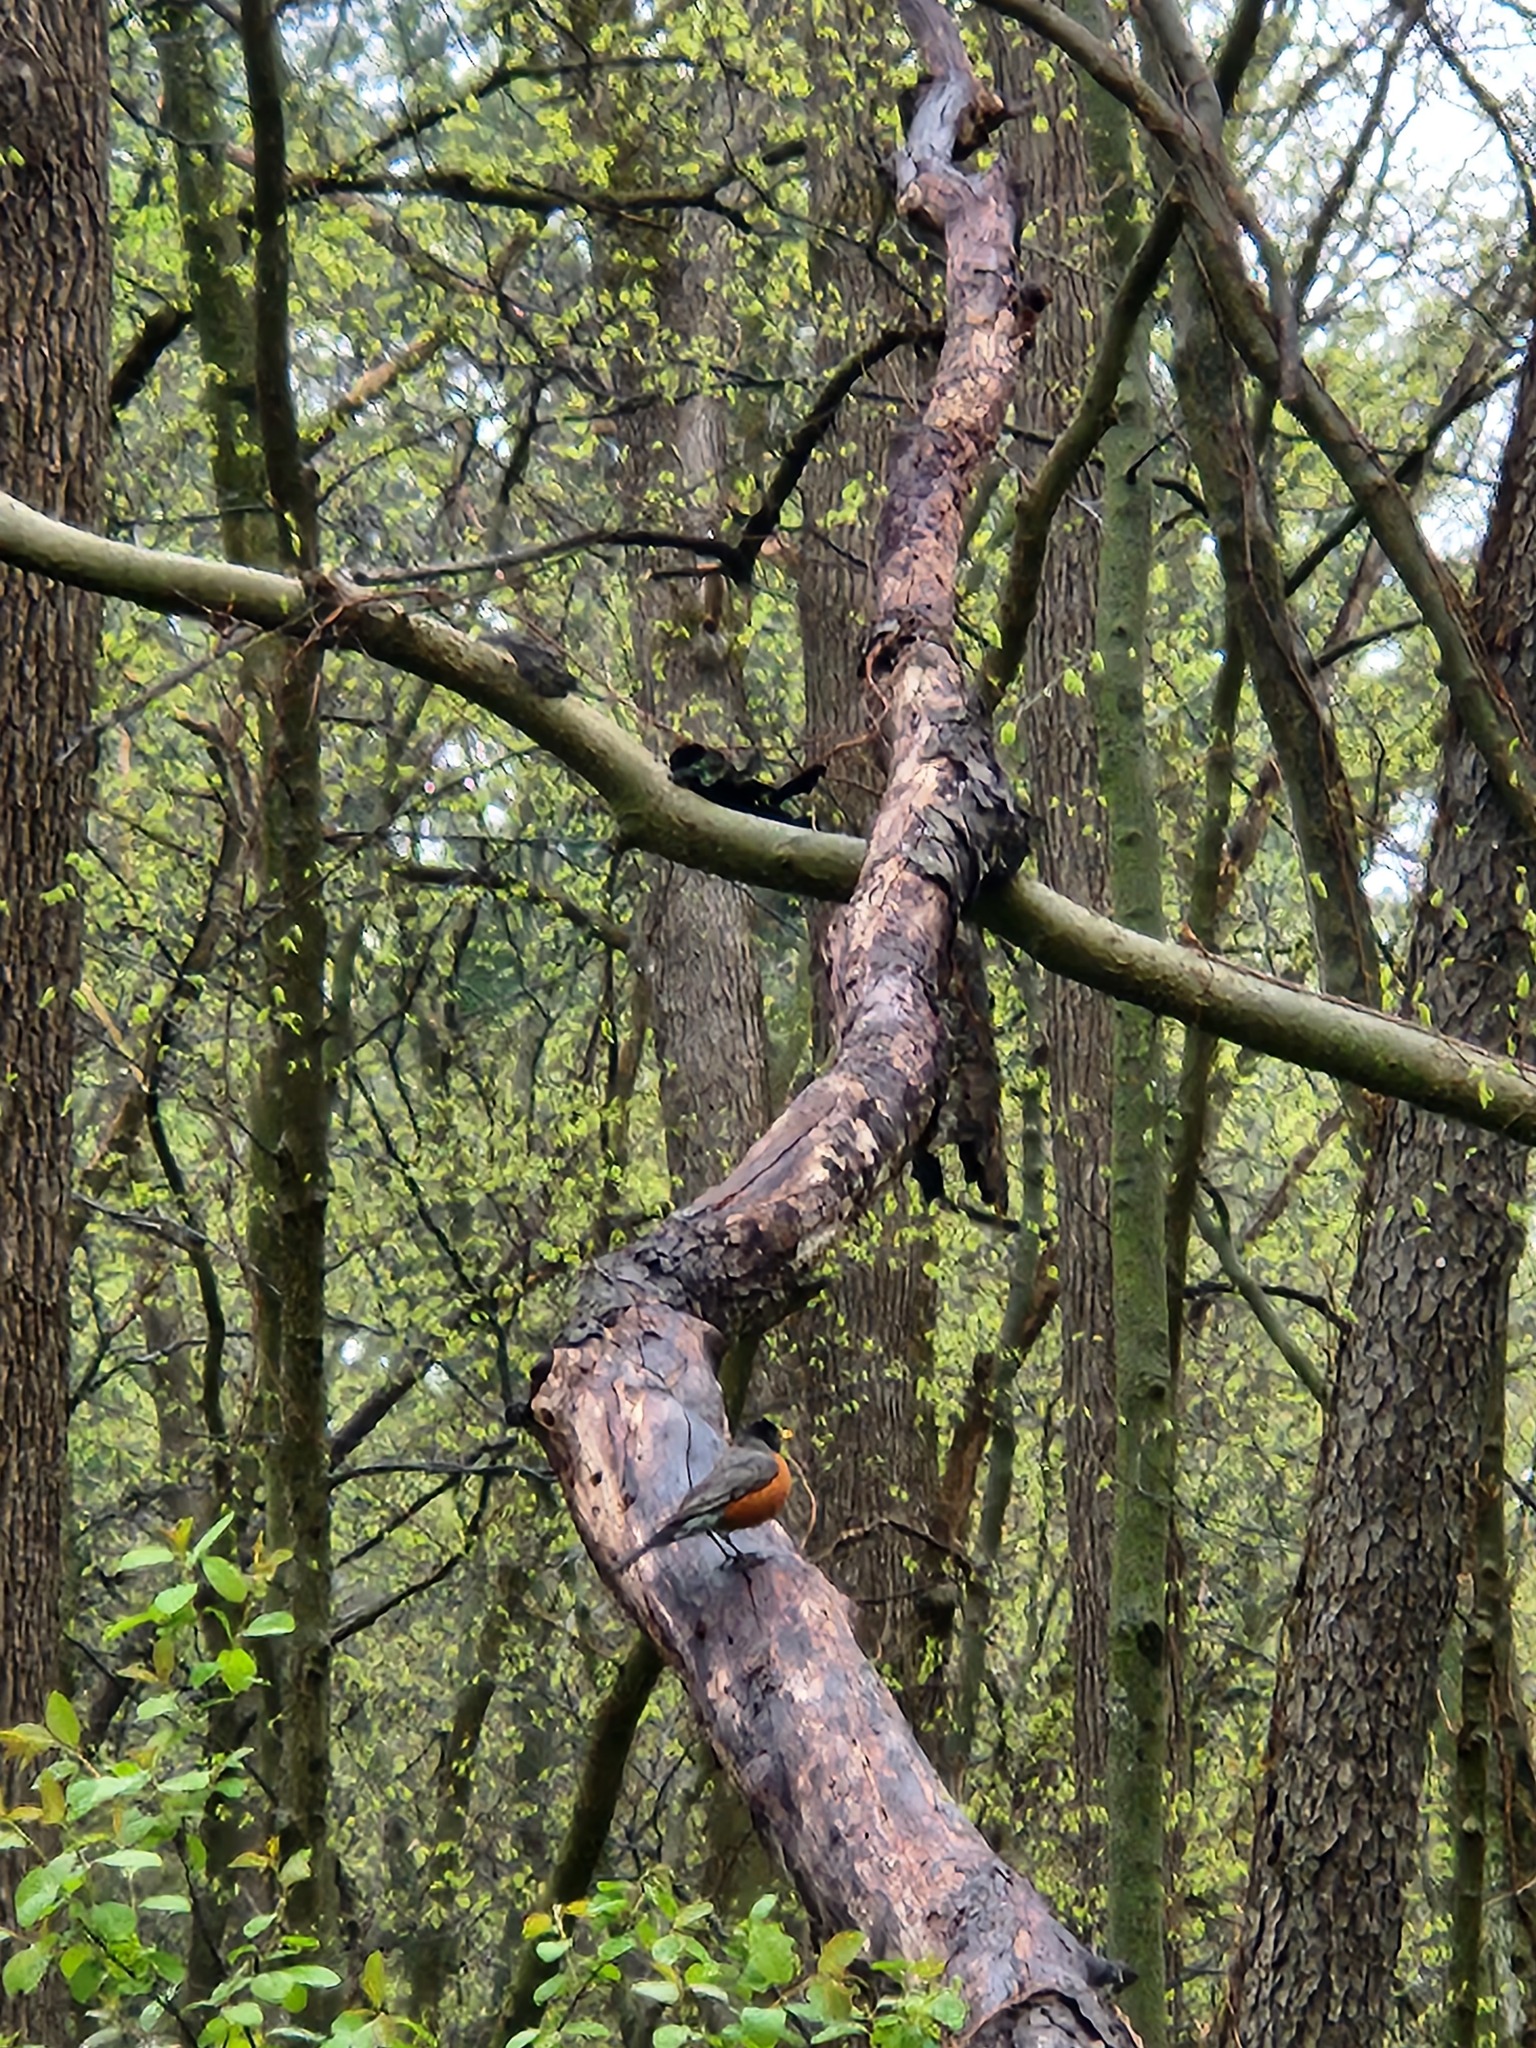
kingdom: Animalia
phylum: Chordata
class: Aves
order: Passeriformes
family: Turdidae
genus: Turdus
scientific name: Turdus migratorius
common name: American robin
